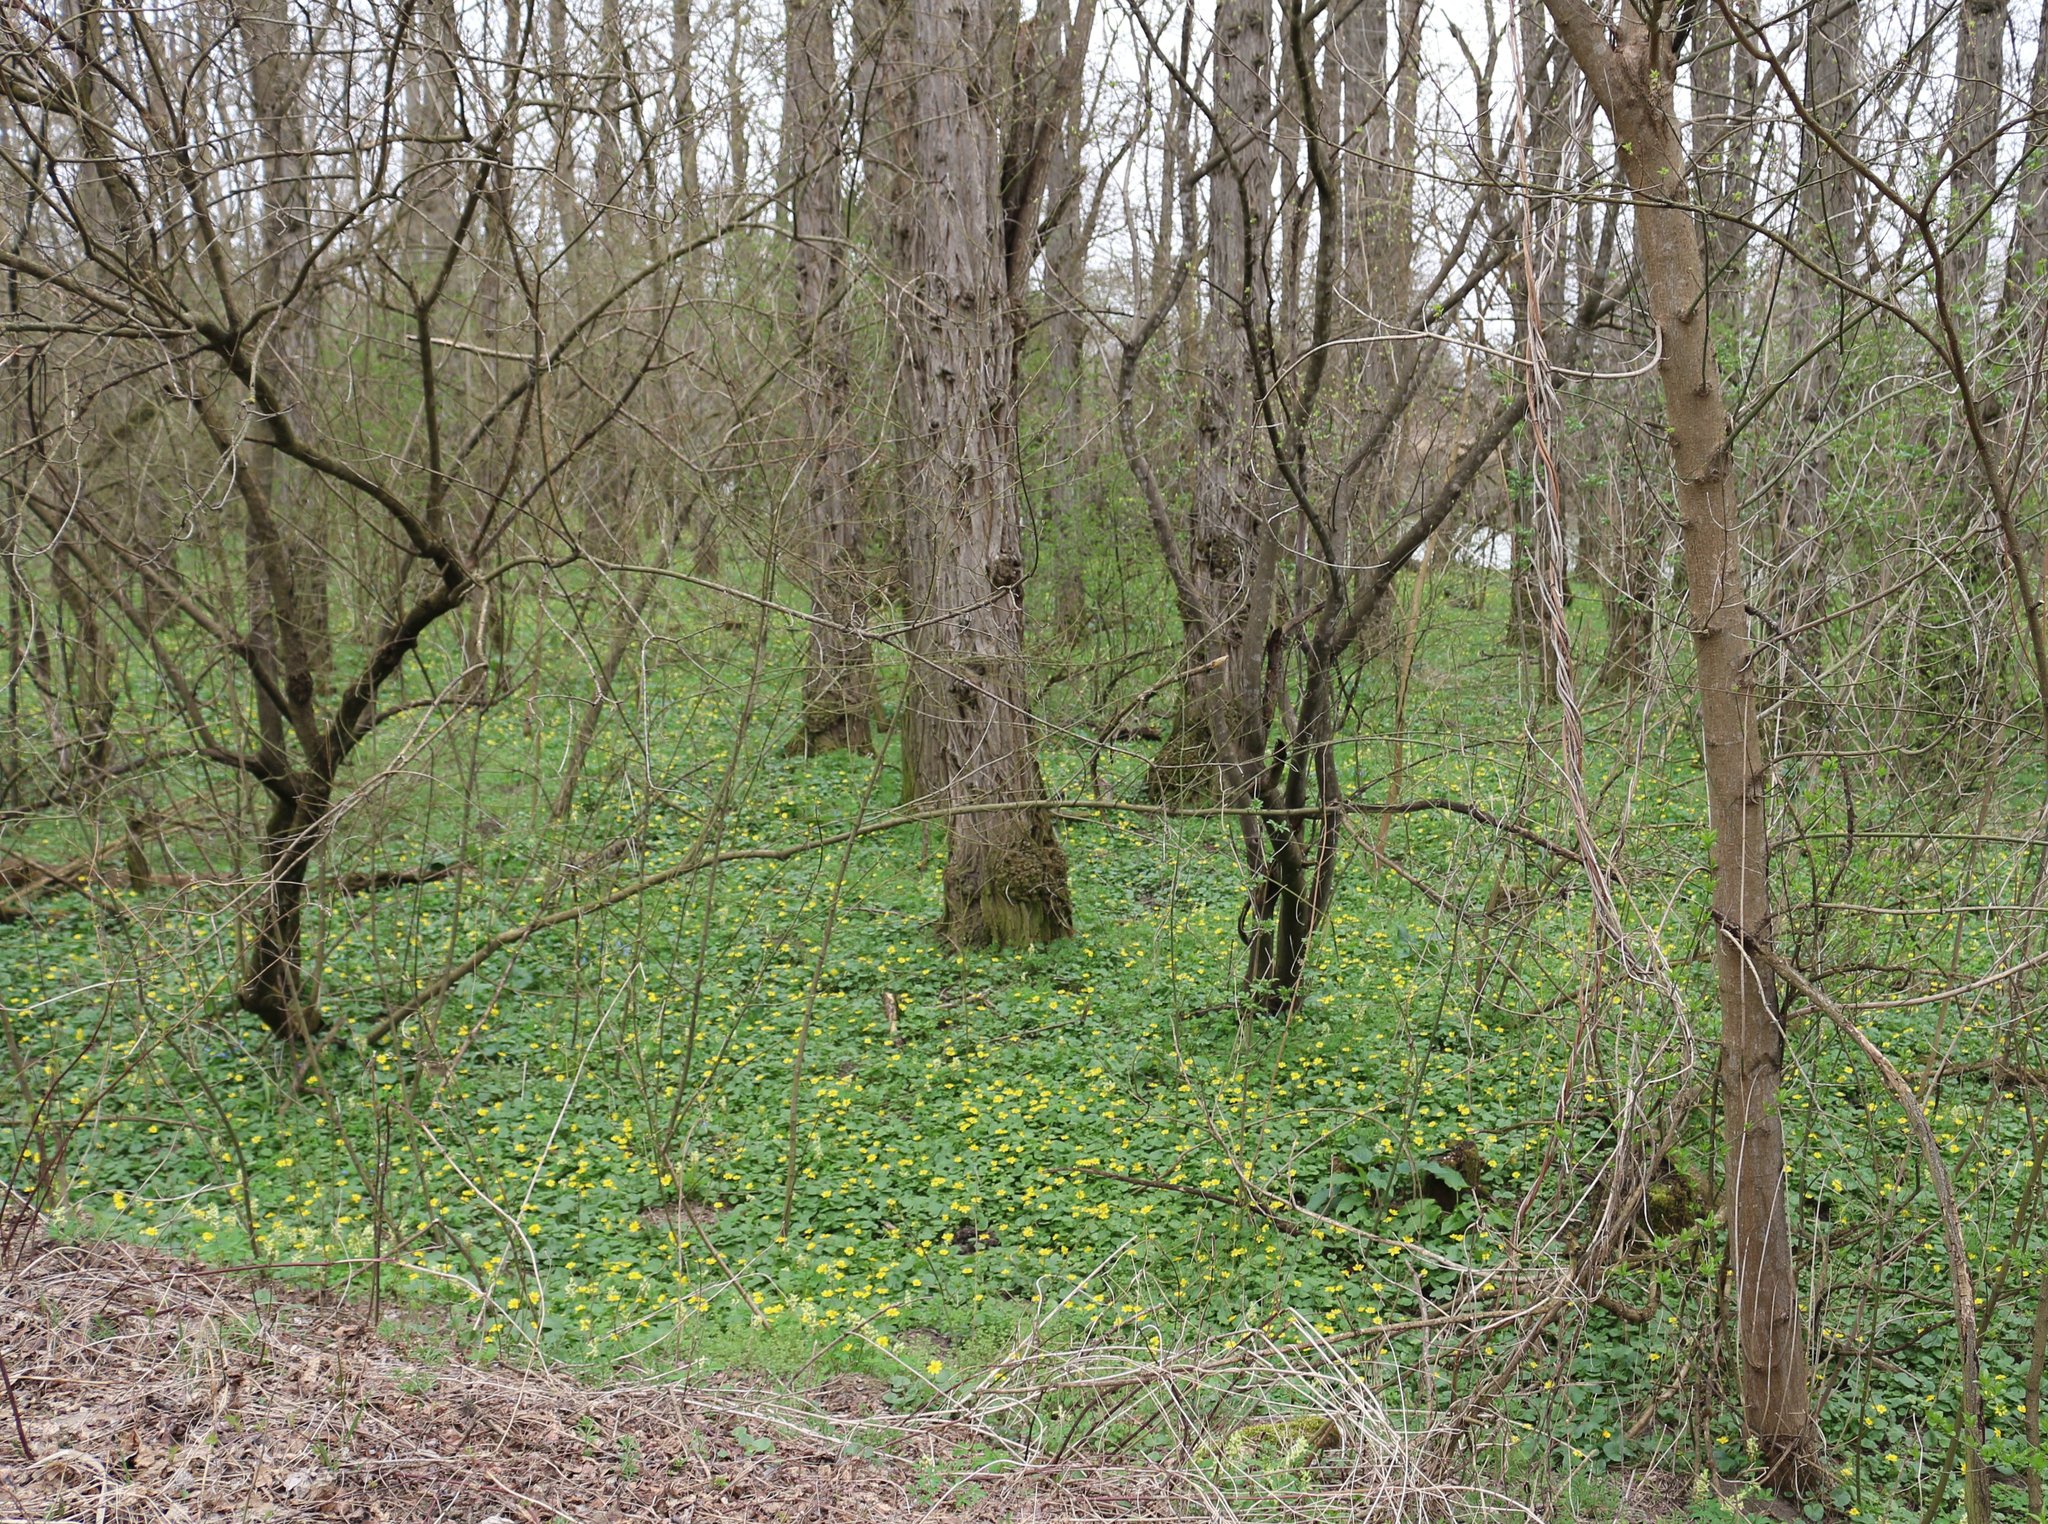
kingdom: Plantae
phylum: Tracheophyta
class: Magnoliopsida
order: Ranunculales
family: Ranunculaceae
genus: Ficaria
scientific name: Ficaria verna
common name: Lesser celandine
